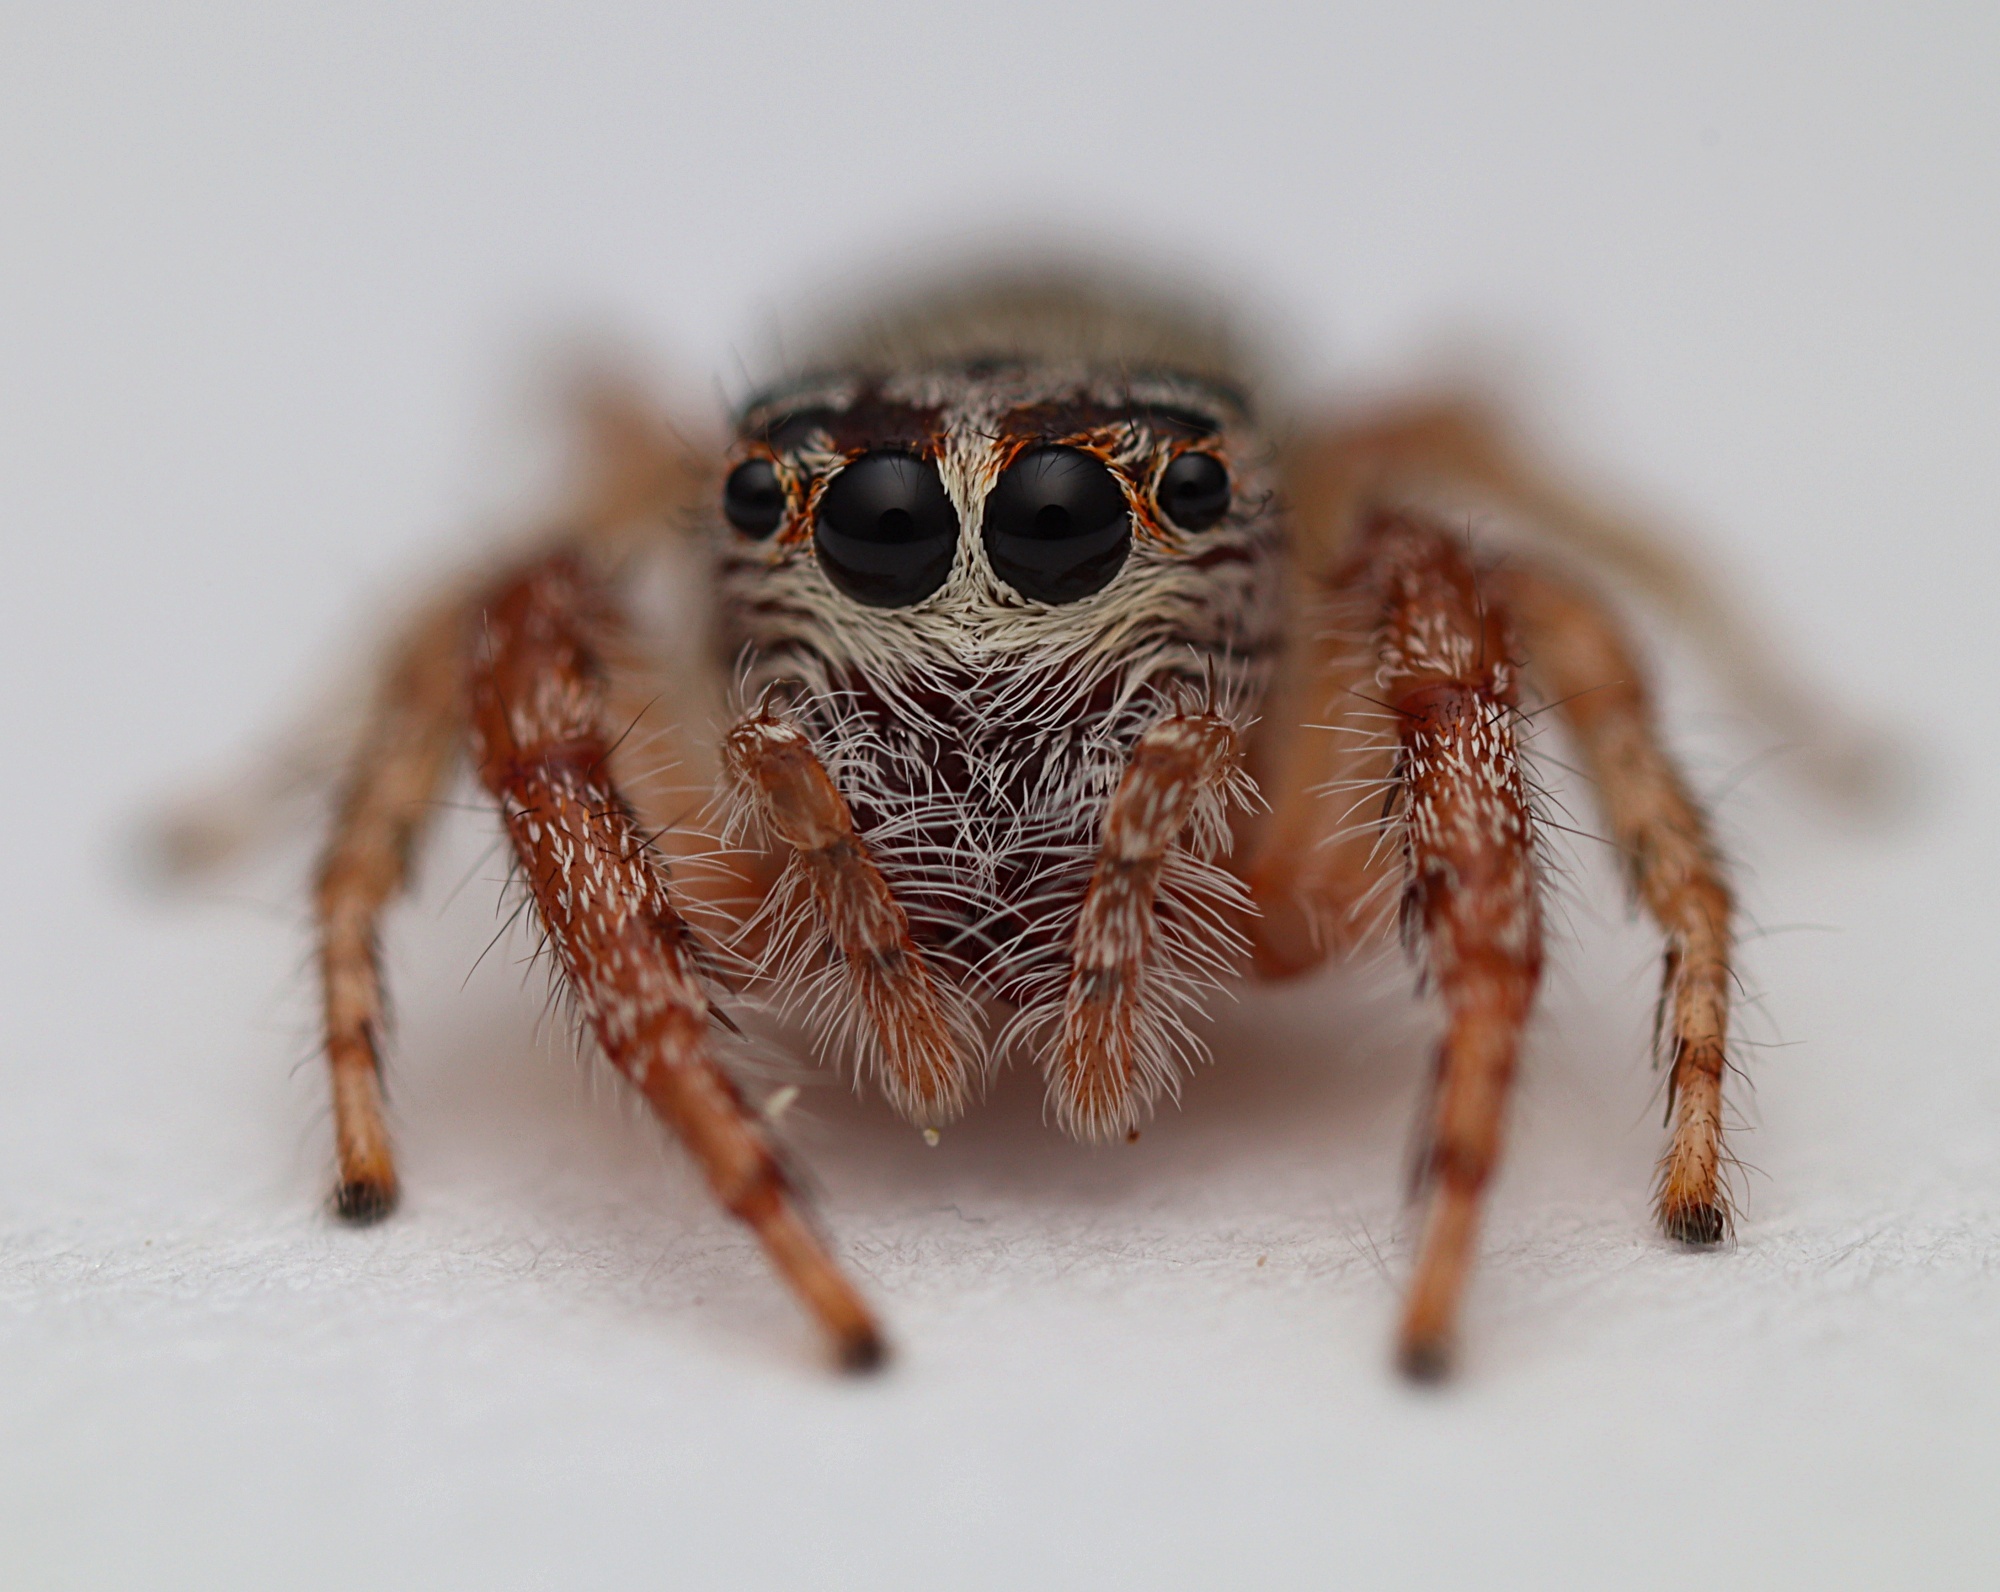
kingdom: Animalia
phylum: Arthropoda
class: Arachnida
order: Araneae
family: Salticidae
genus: Opisthoncus
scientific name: Opisthoncus polyphemus
